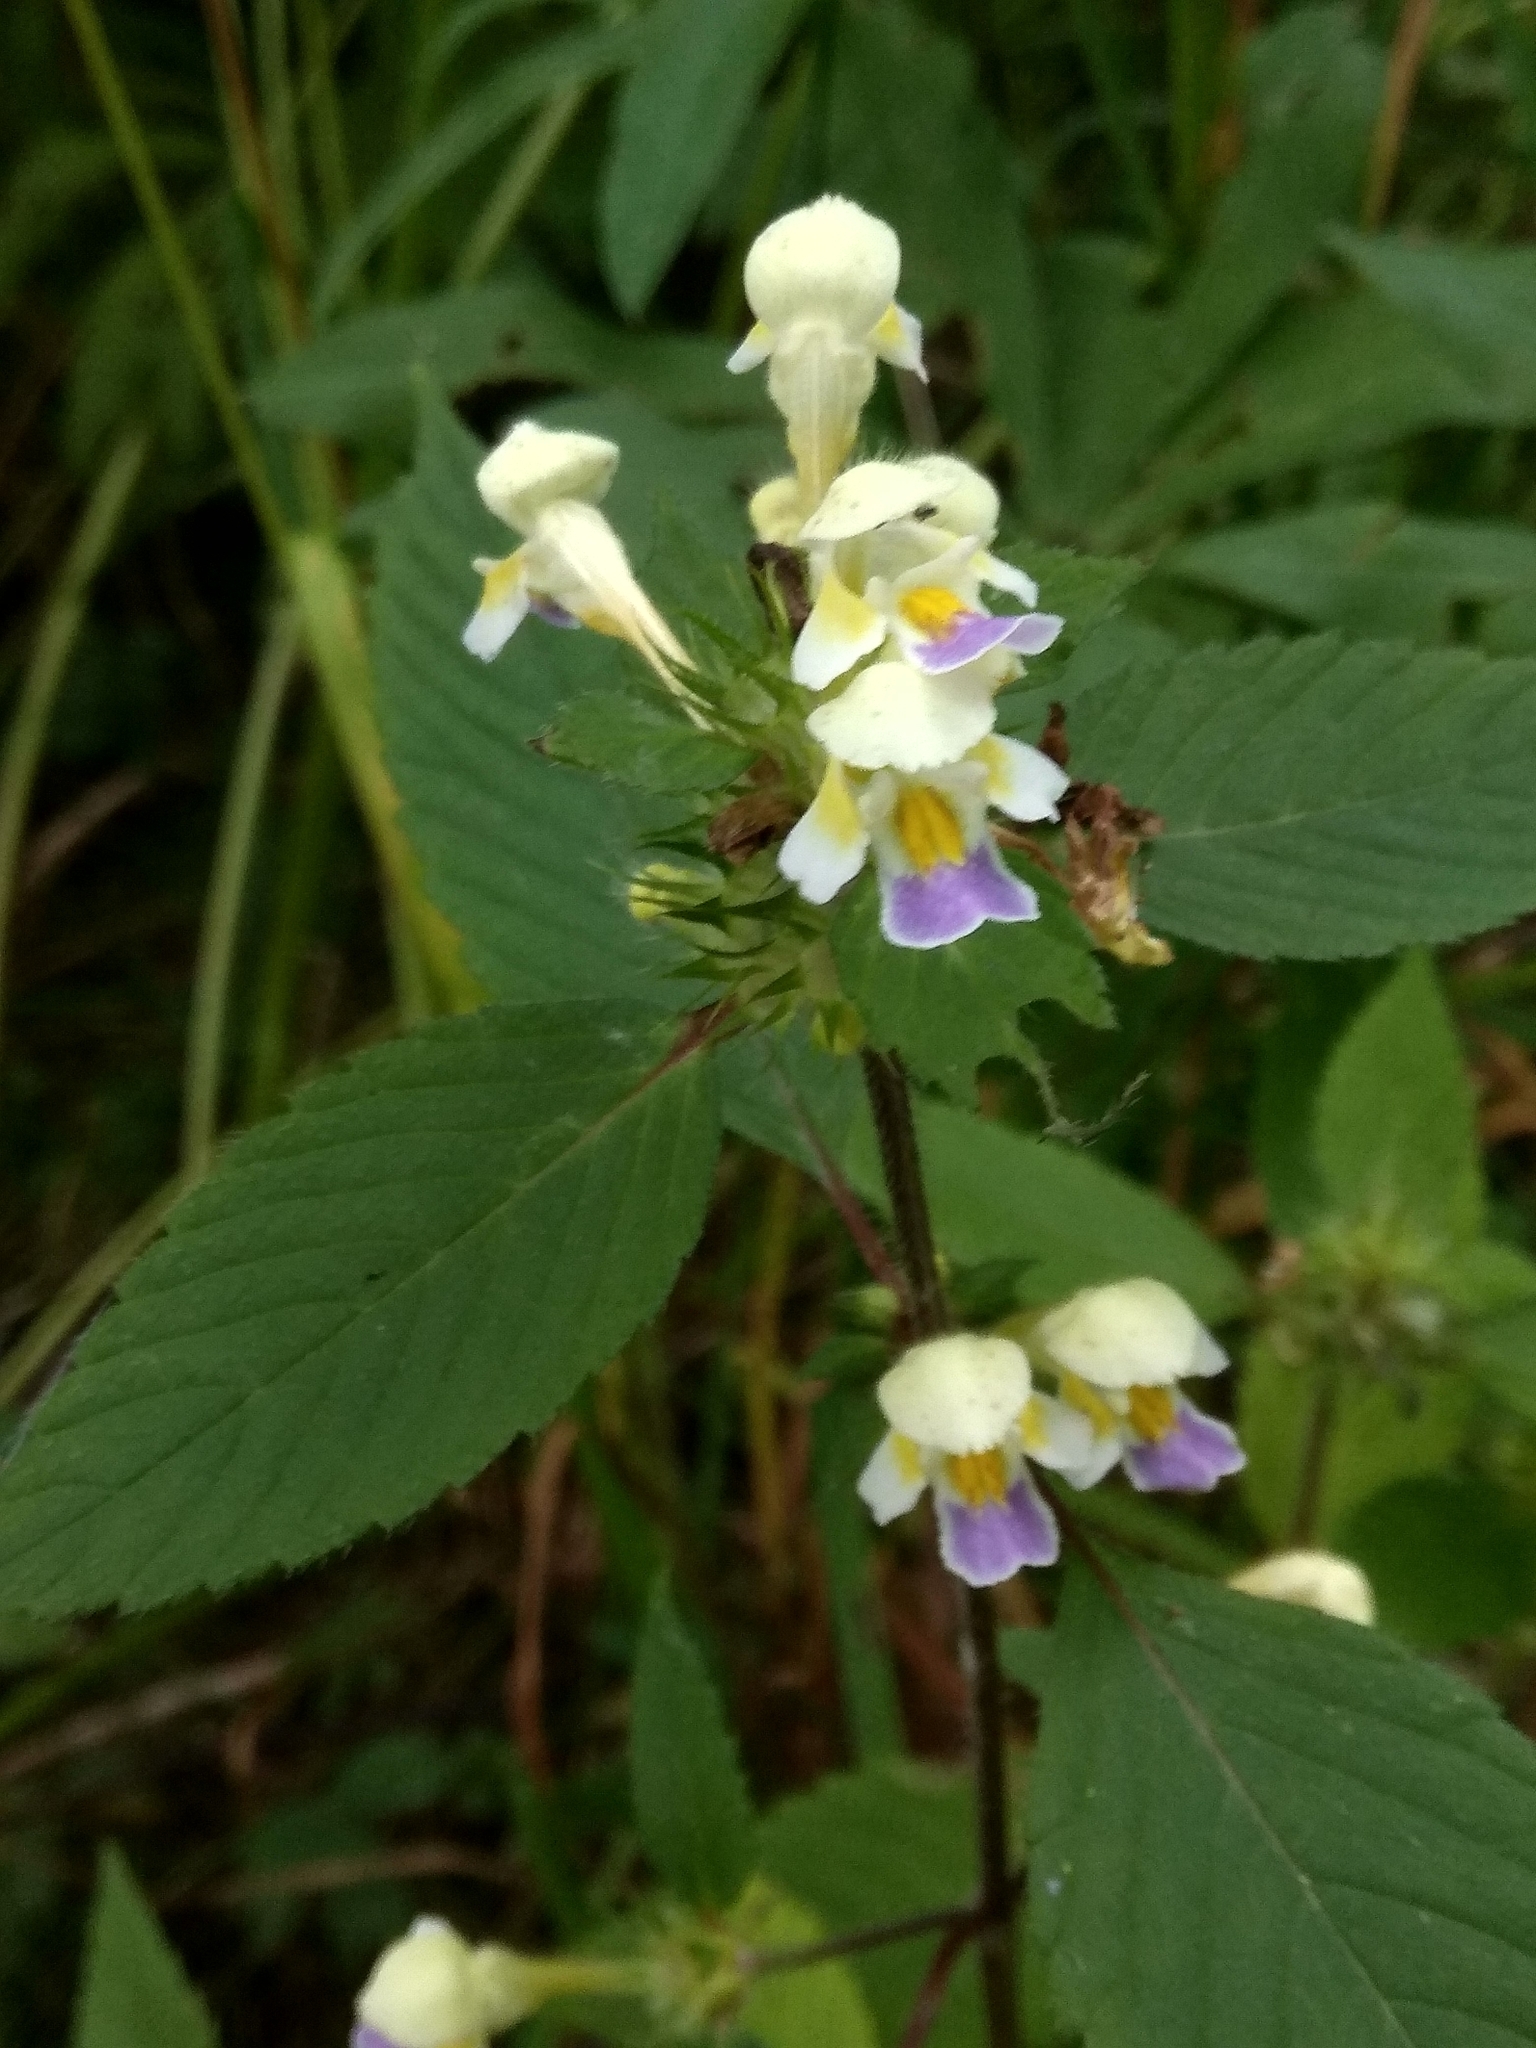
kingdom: Plantae
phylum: Tracheophyta
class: Magnoliopsida
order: Lamiales
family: Lamiaceae
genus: Galeopsis
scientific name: Galeopsis speciosa
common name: Large-flowered hemp-nettle
